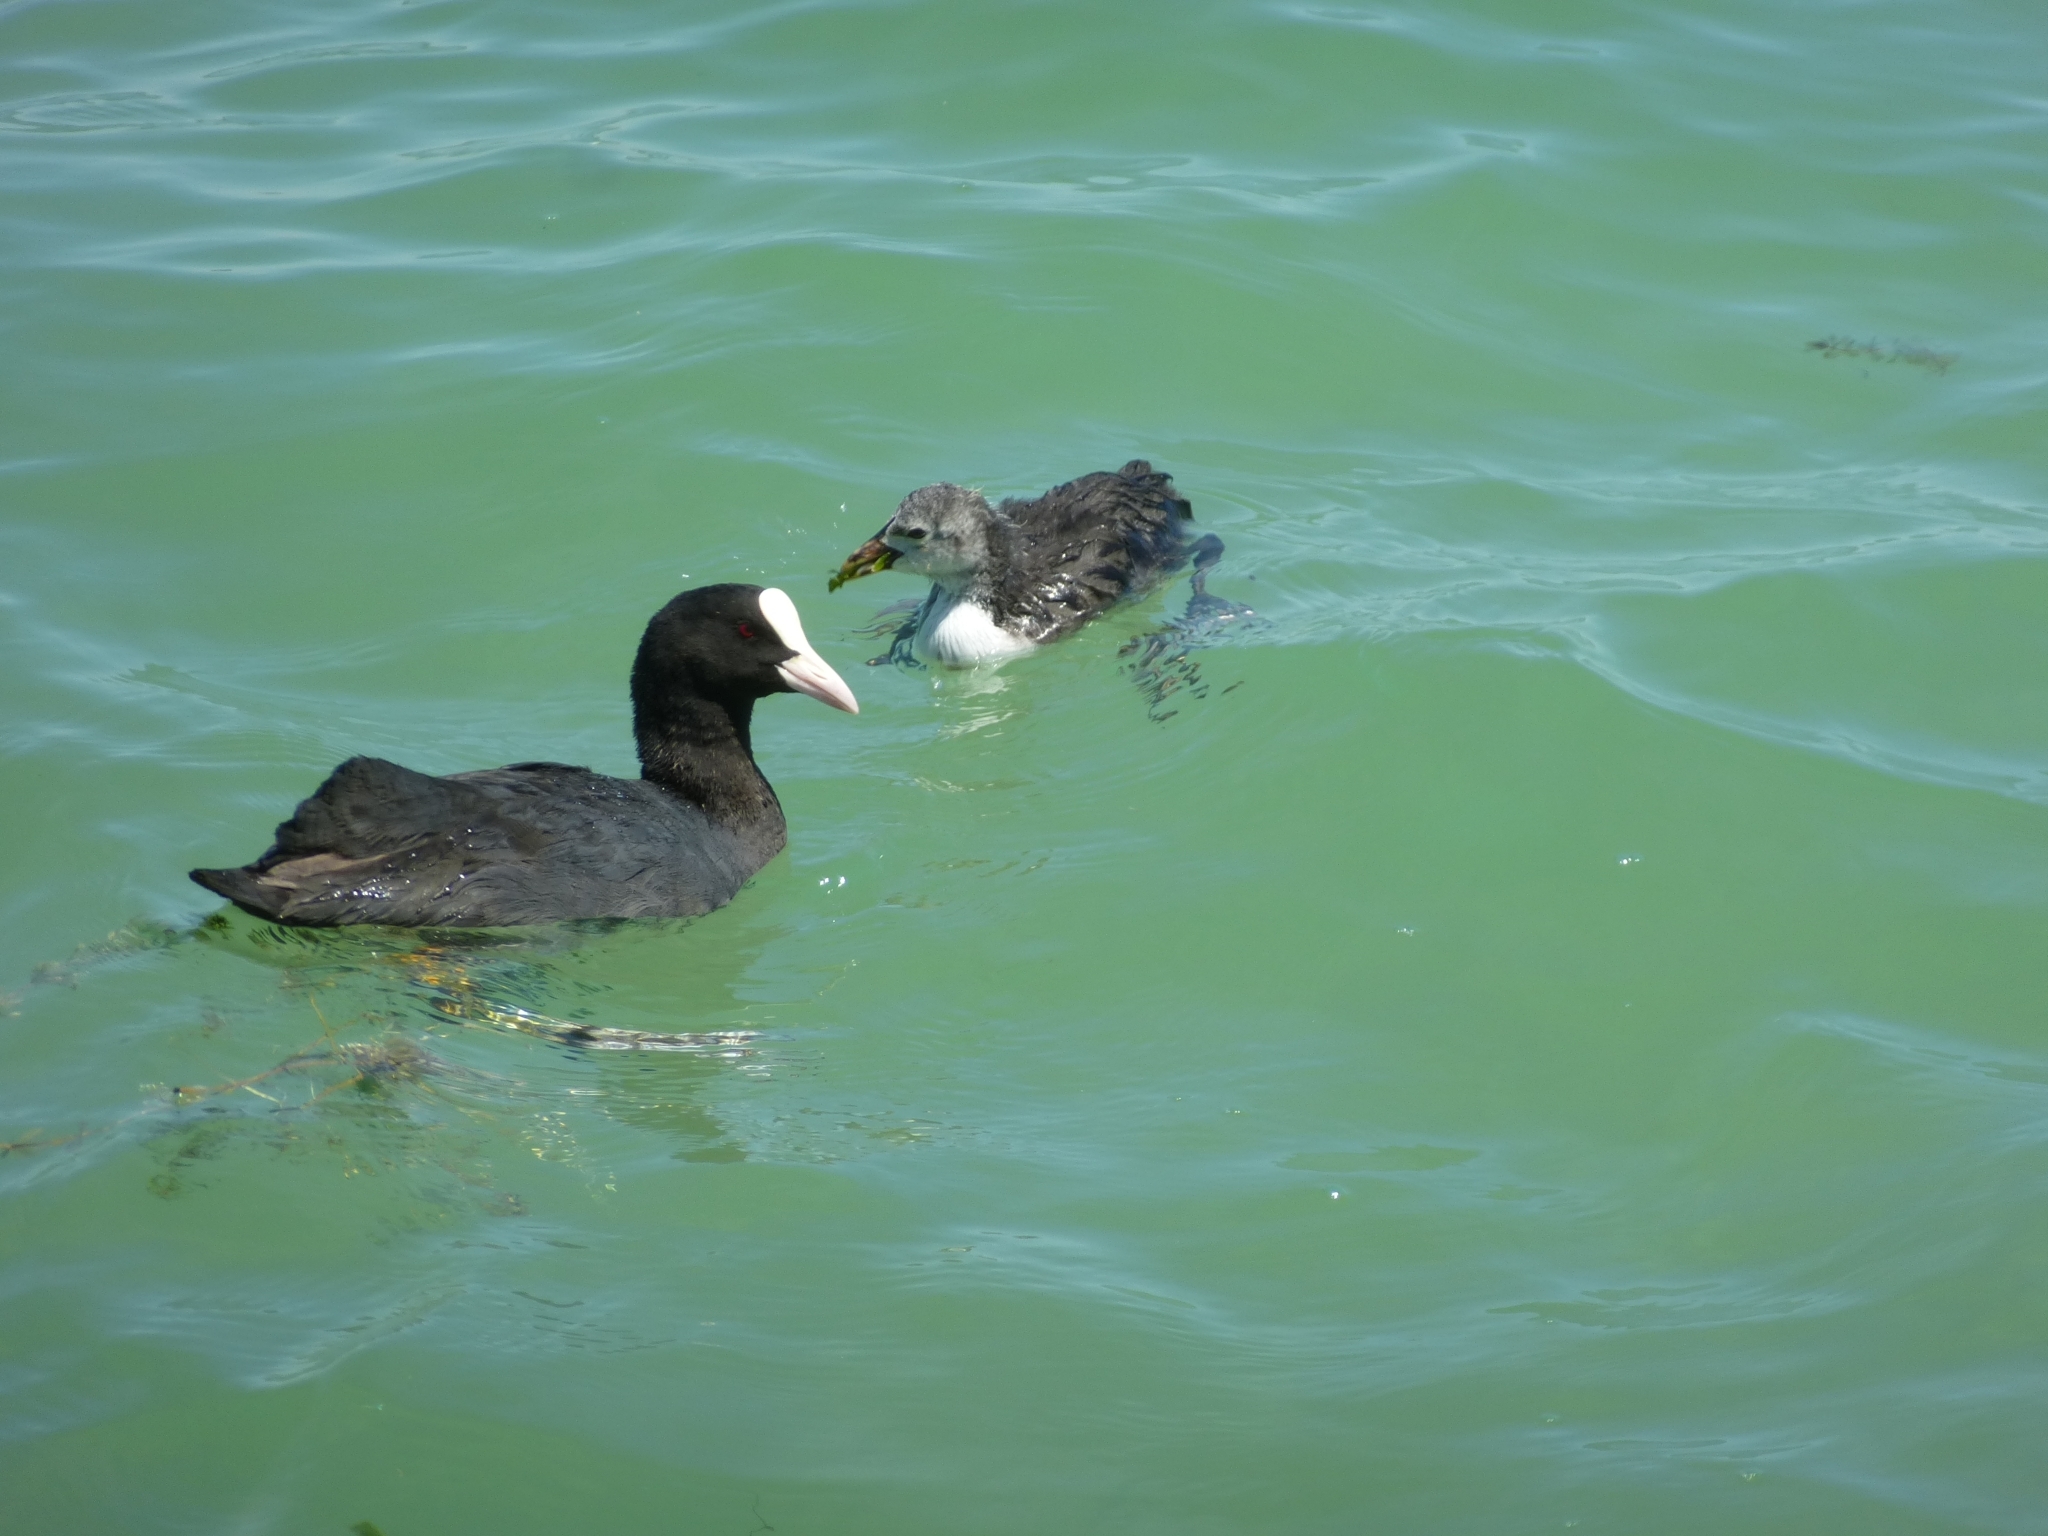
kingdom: Animalia
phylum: Chordata
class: Aves
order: Gruiformes
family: Rallidae
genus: Fulica
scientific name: Fulica atra
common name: Eurasian coot
